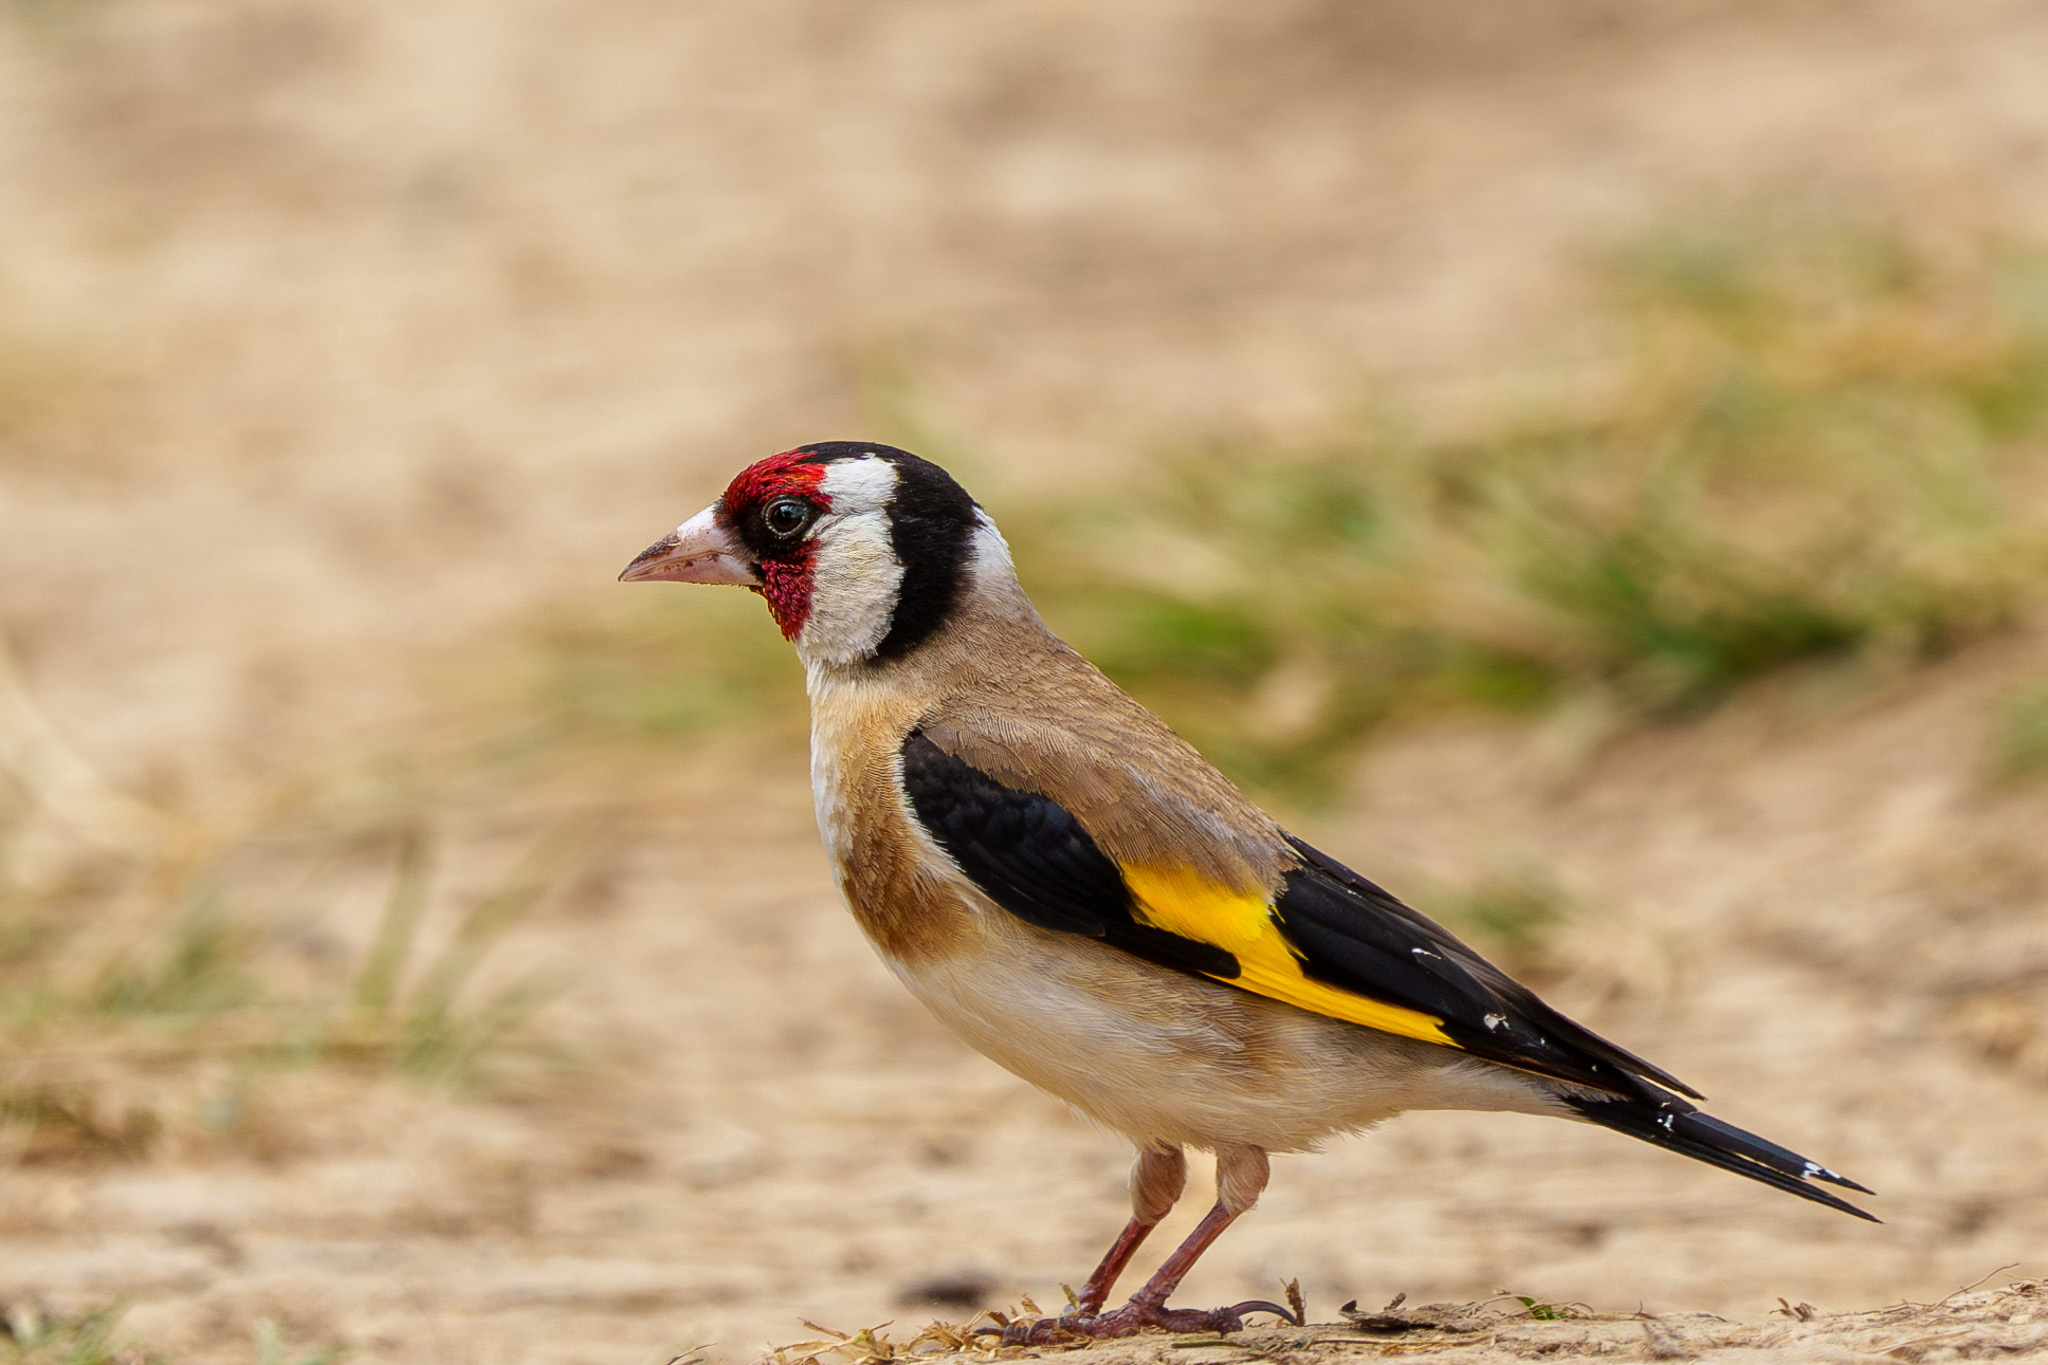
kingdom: Animalia
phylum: Chordata
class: Aves
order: Passeriformes
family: Fringillidae
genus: Carduelis
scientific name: Carduelis carduelis
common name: European goldfinch
